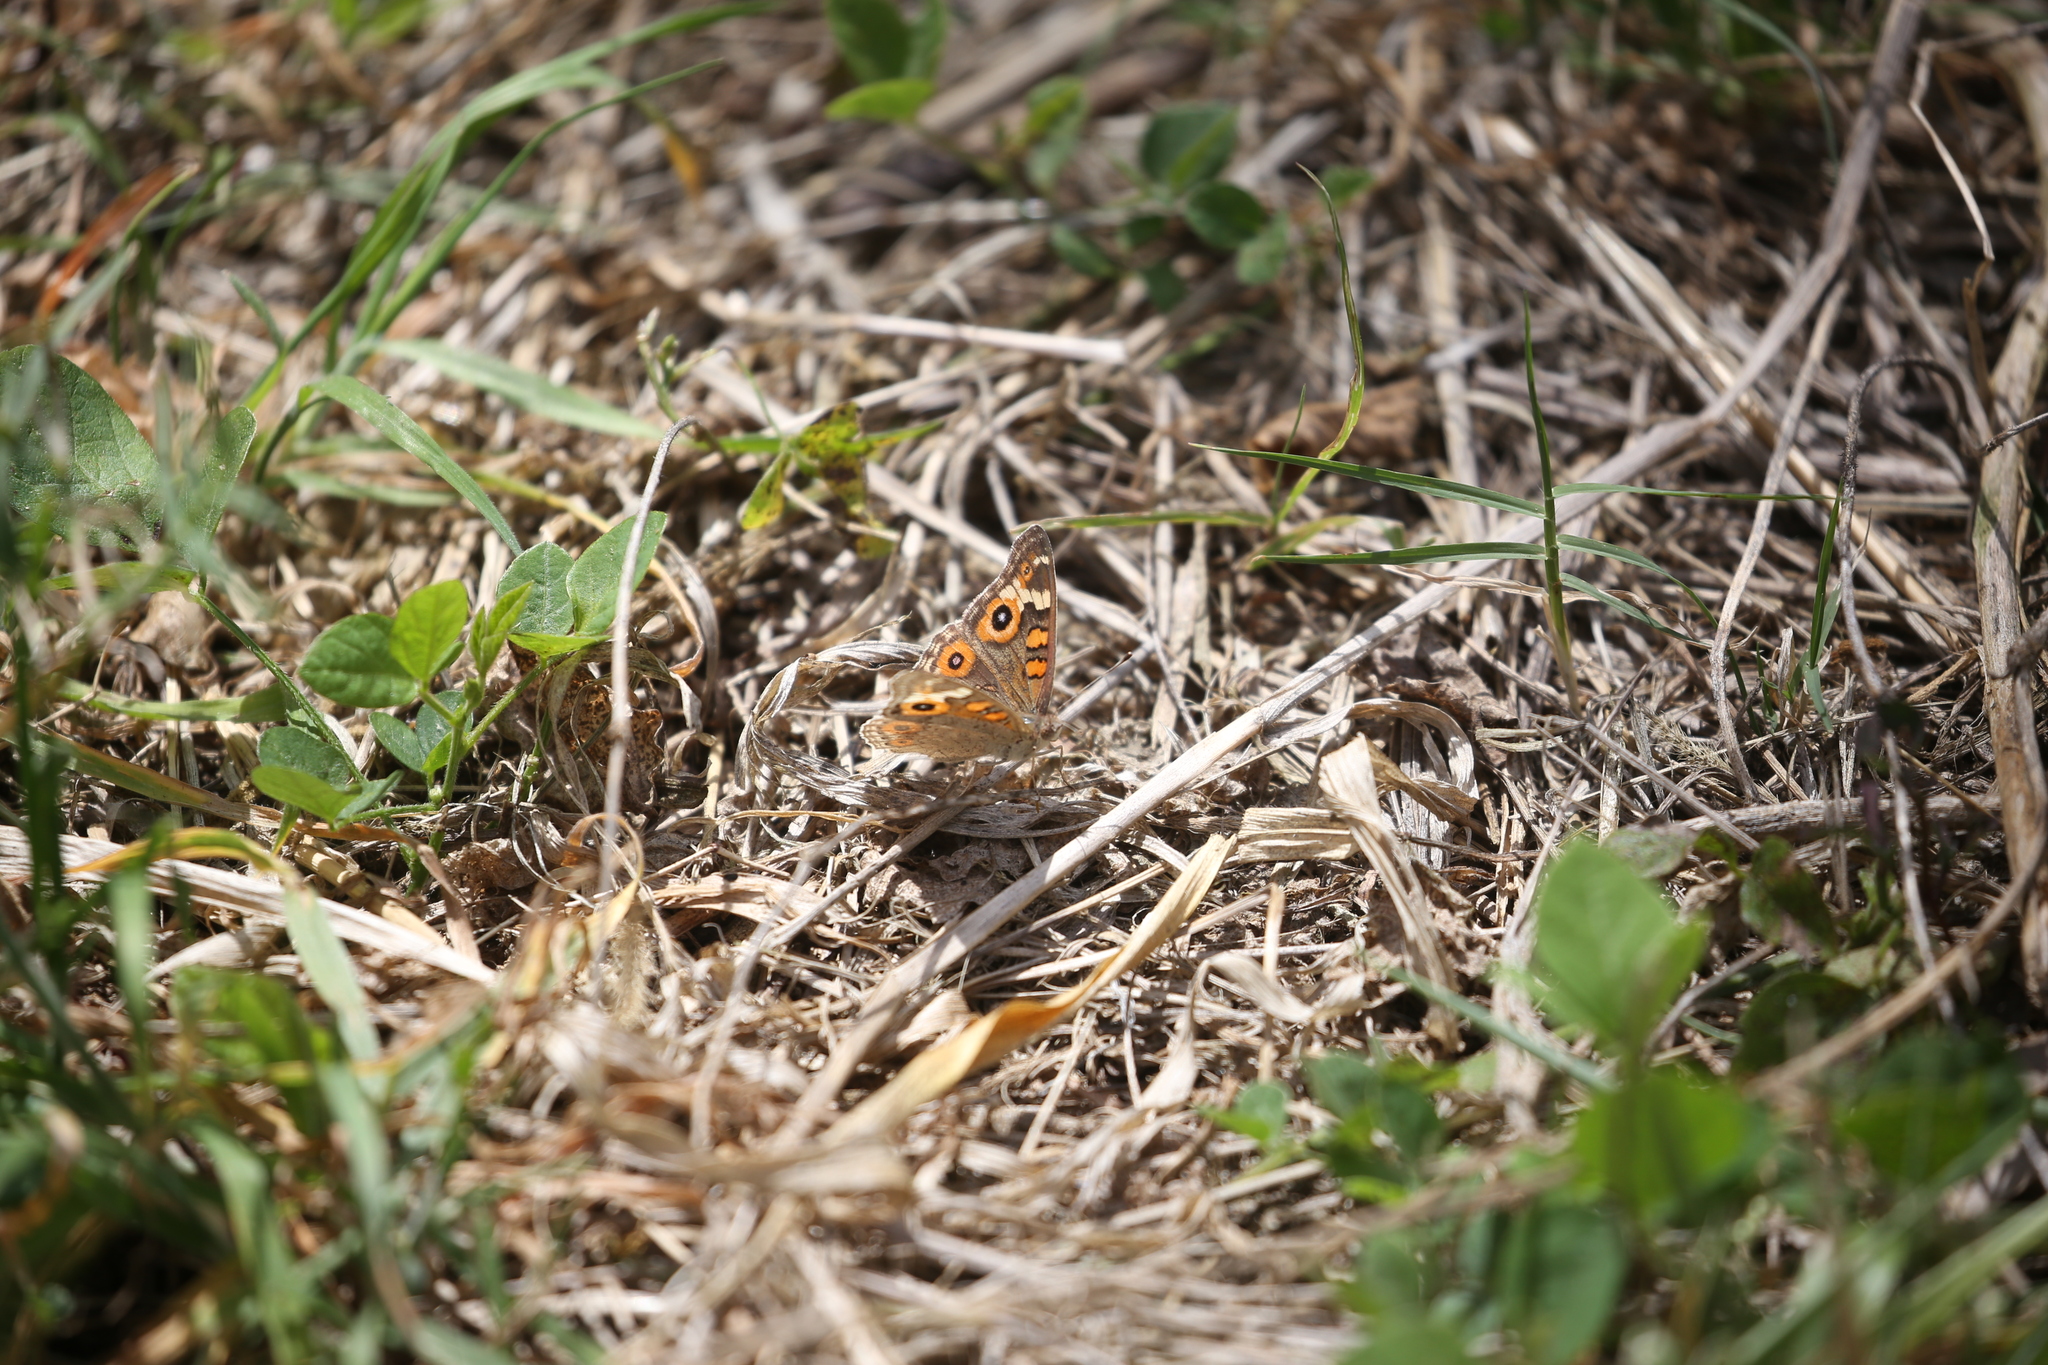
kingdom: Animalia
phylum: Arthropoda
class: Insecta
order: Lepidoptera
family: Nymphalidae
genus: Junonia
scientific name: Junonia villida
